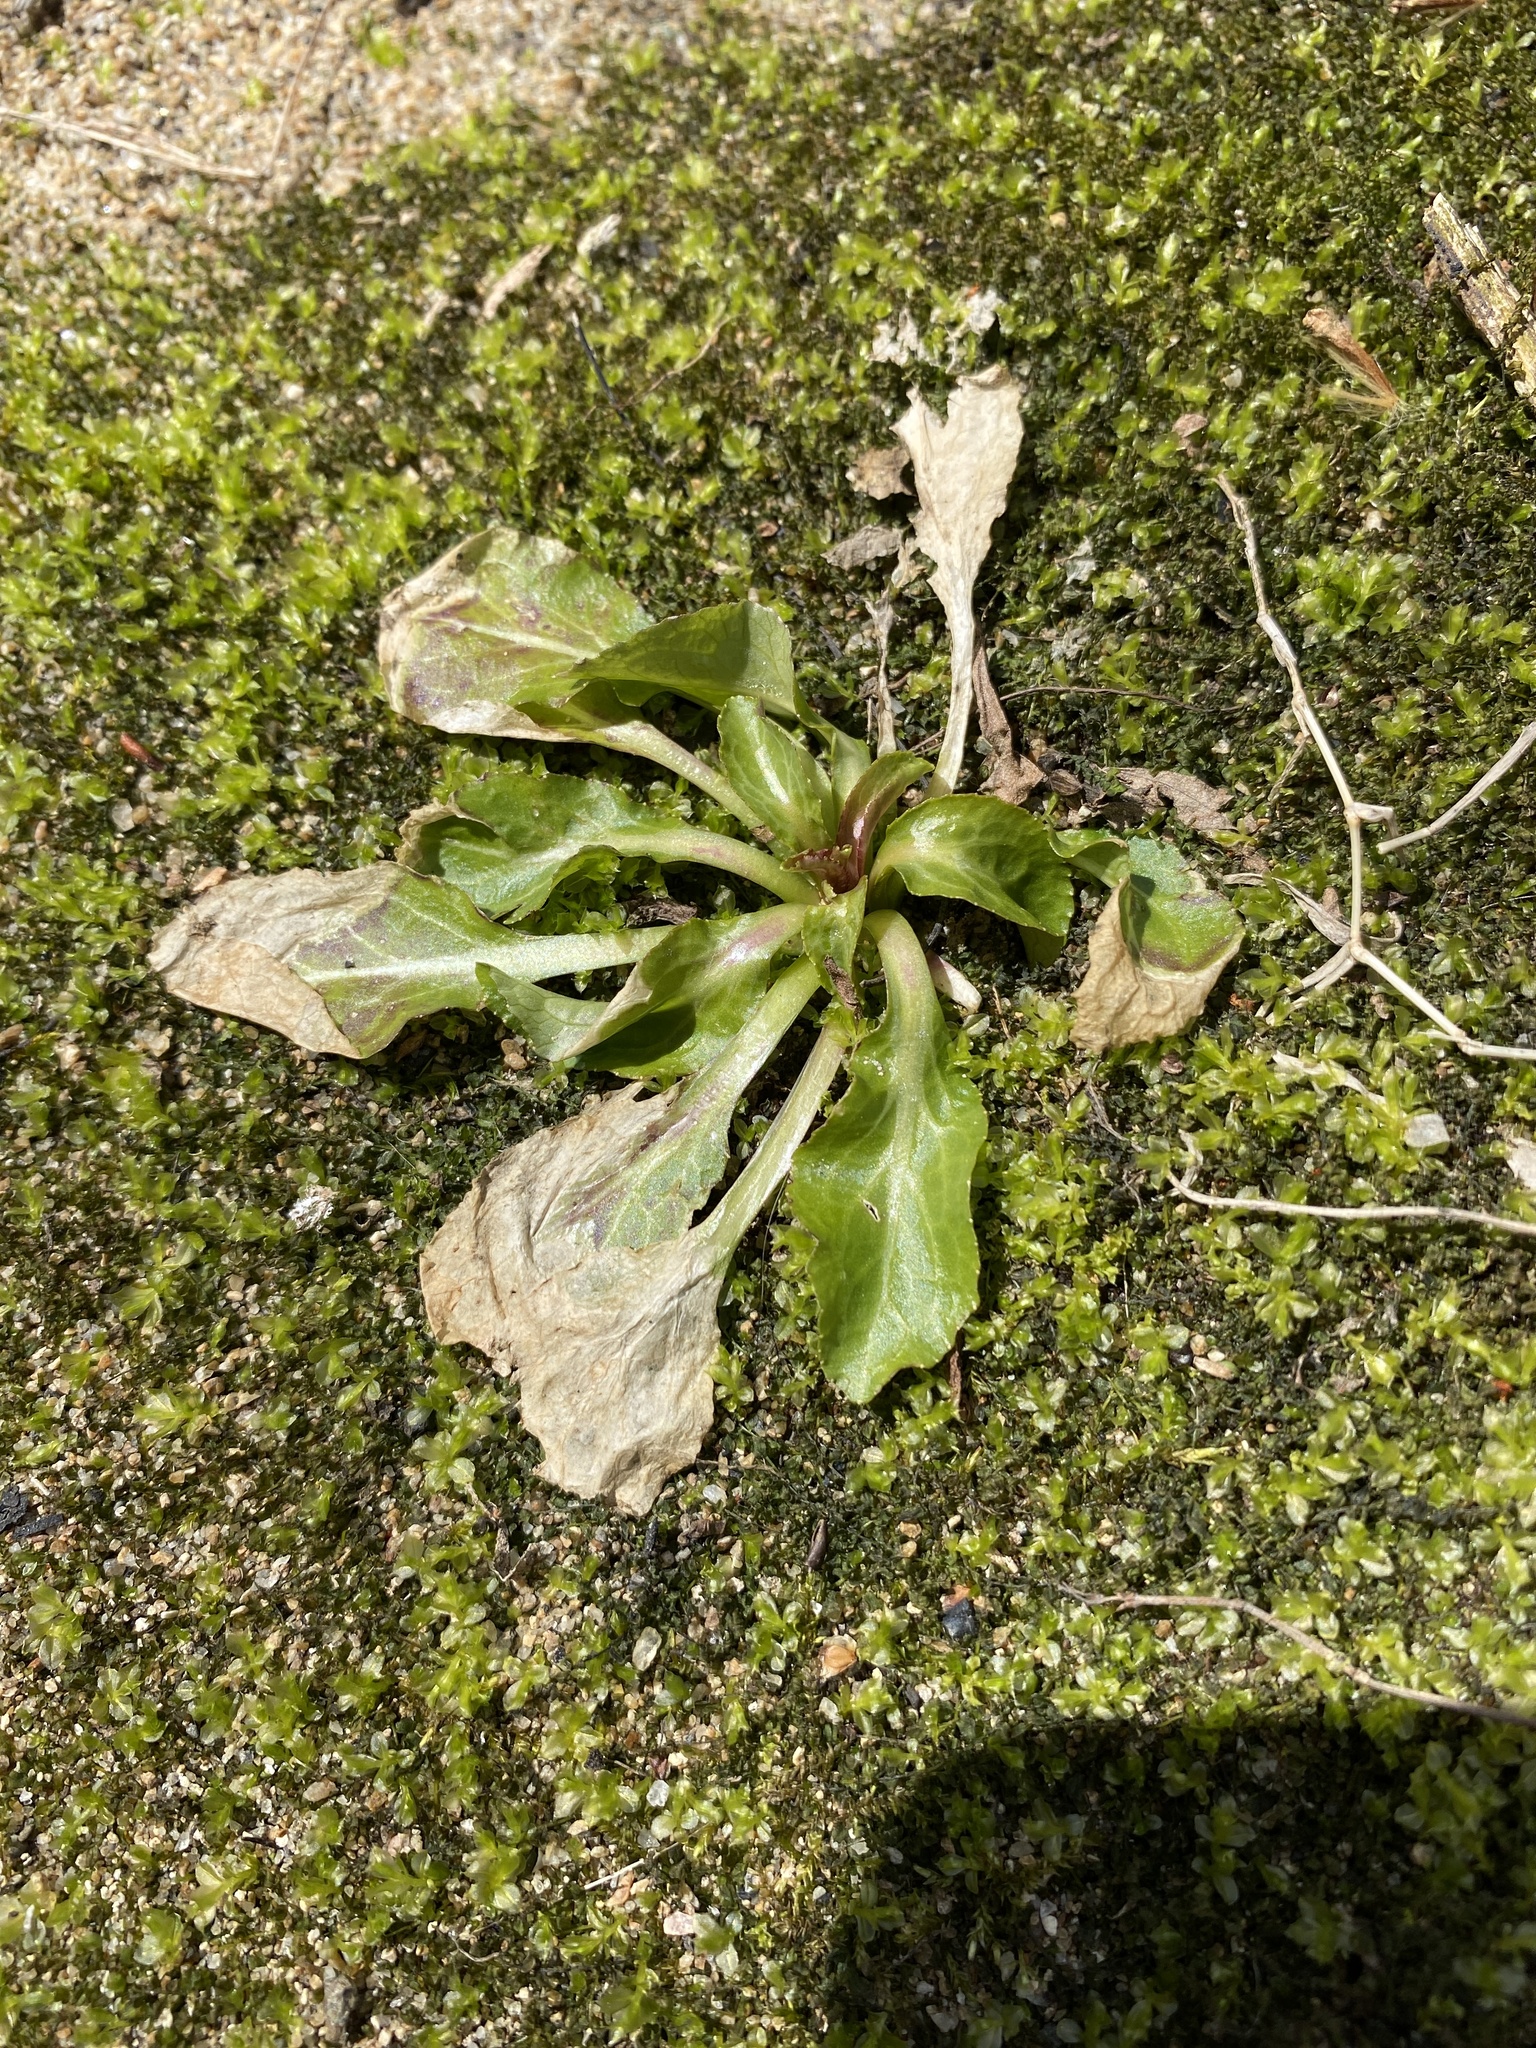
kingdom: Plantae
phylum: Tracheophyta
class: Magnoliopsida
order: Asterales
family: Campanulaceae
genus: Lobelia
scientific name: Lobelia cardinalis
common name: Cardinal flower
